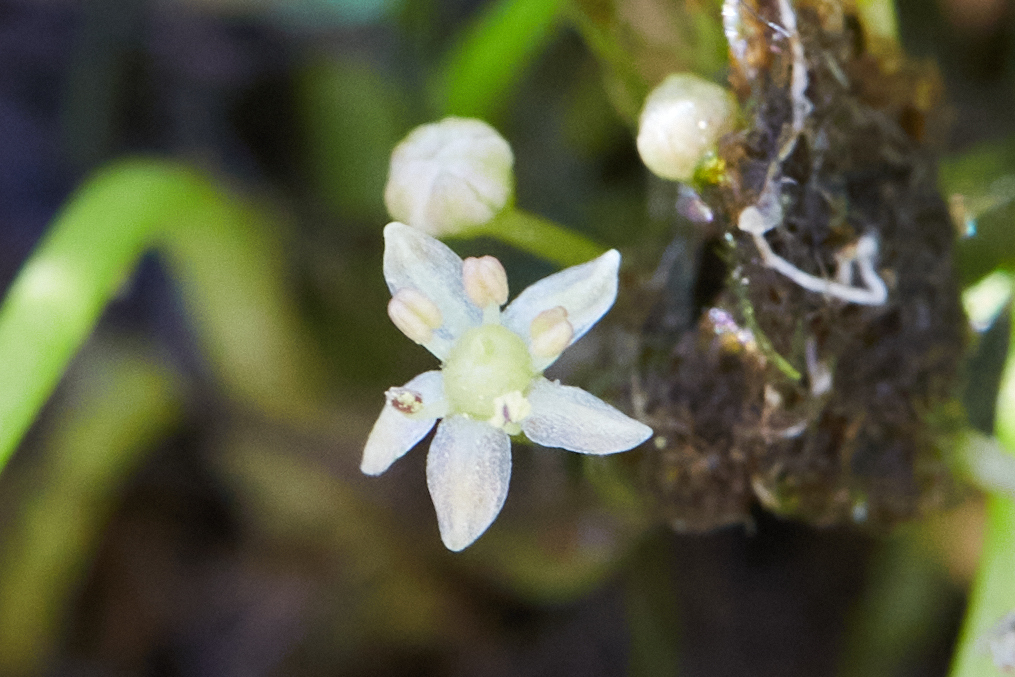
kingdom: Plantae
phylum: Tracheophyta
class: Magnoliopsida
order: Apiales
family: Apiaceae
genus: Lilaeopsis
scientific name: Lilaeopsis occidentalis
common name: Western grasswort
